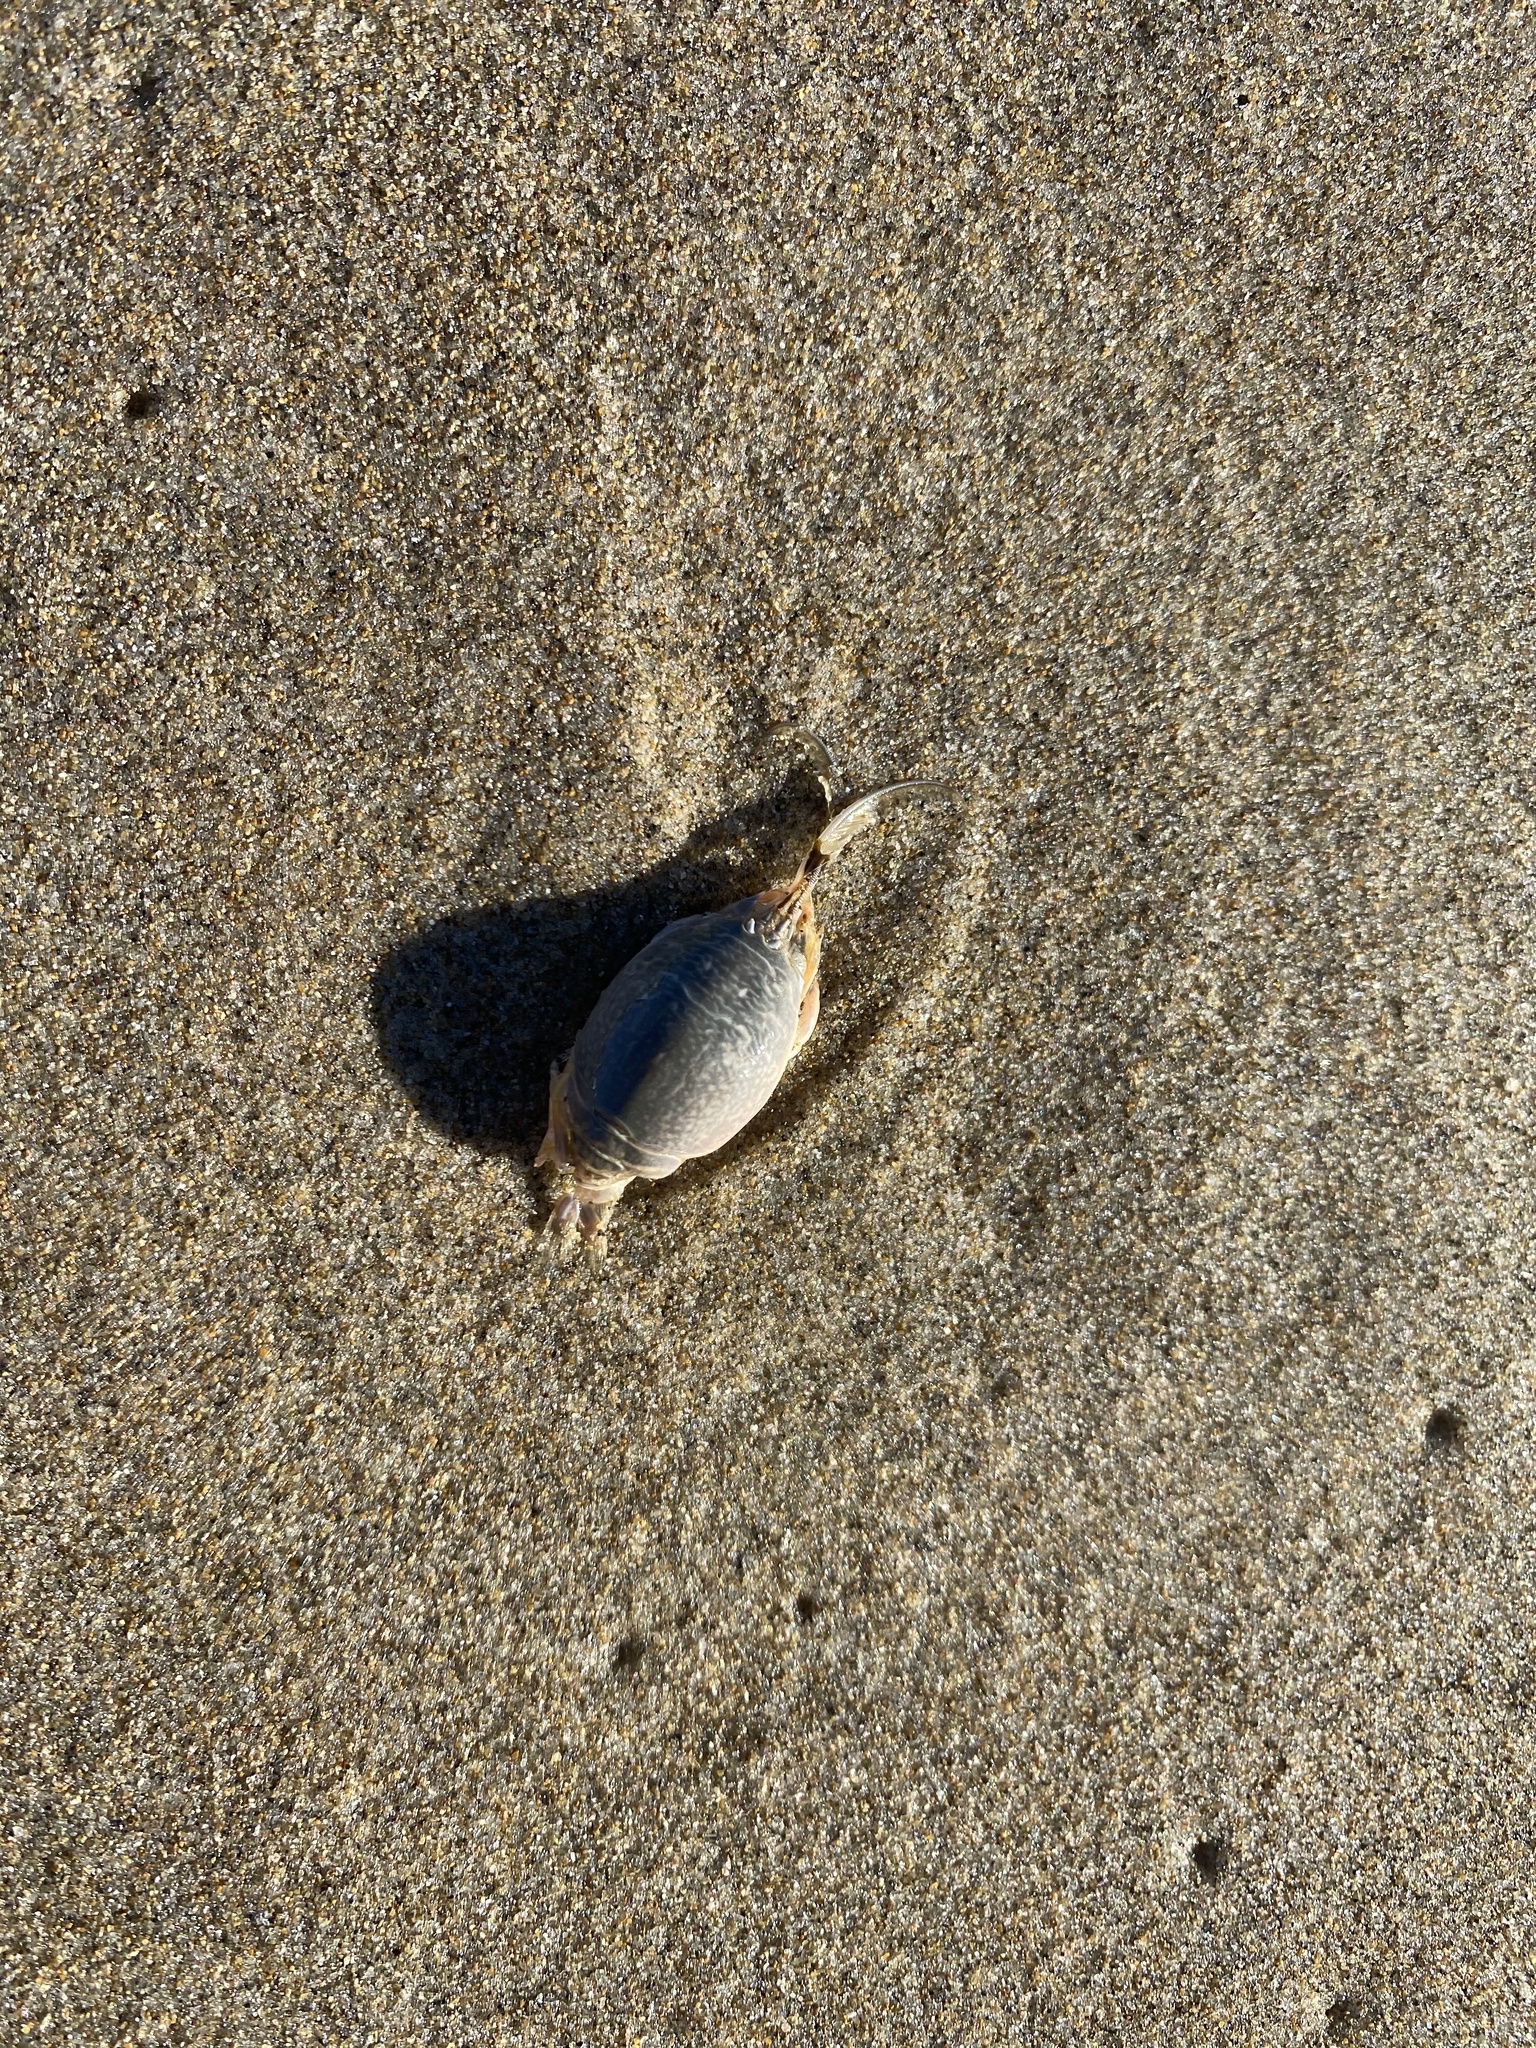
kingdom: Animalia
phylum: Arthropoda
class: Malacostraca
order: Decapoda
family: Hippidae
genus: Emerita
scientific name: Emerita analoga
